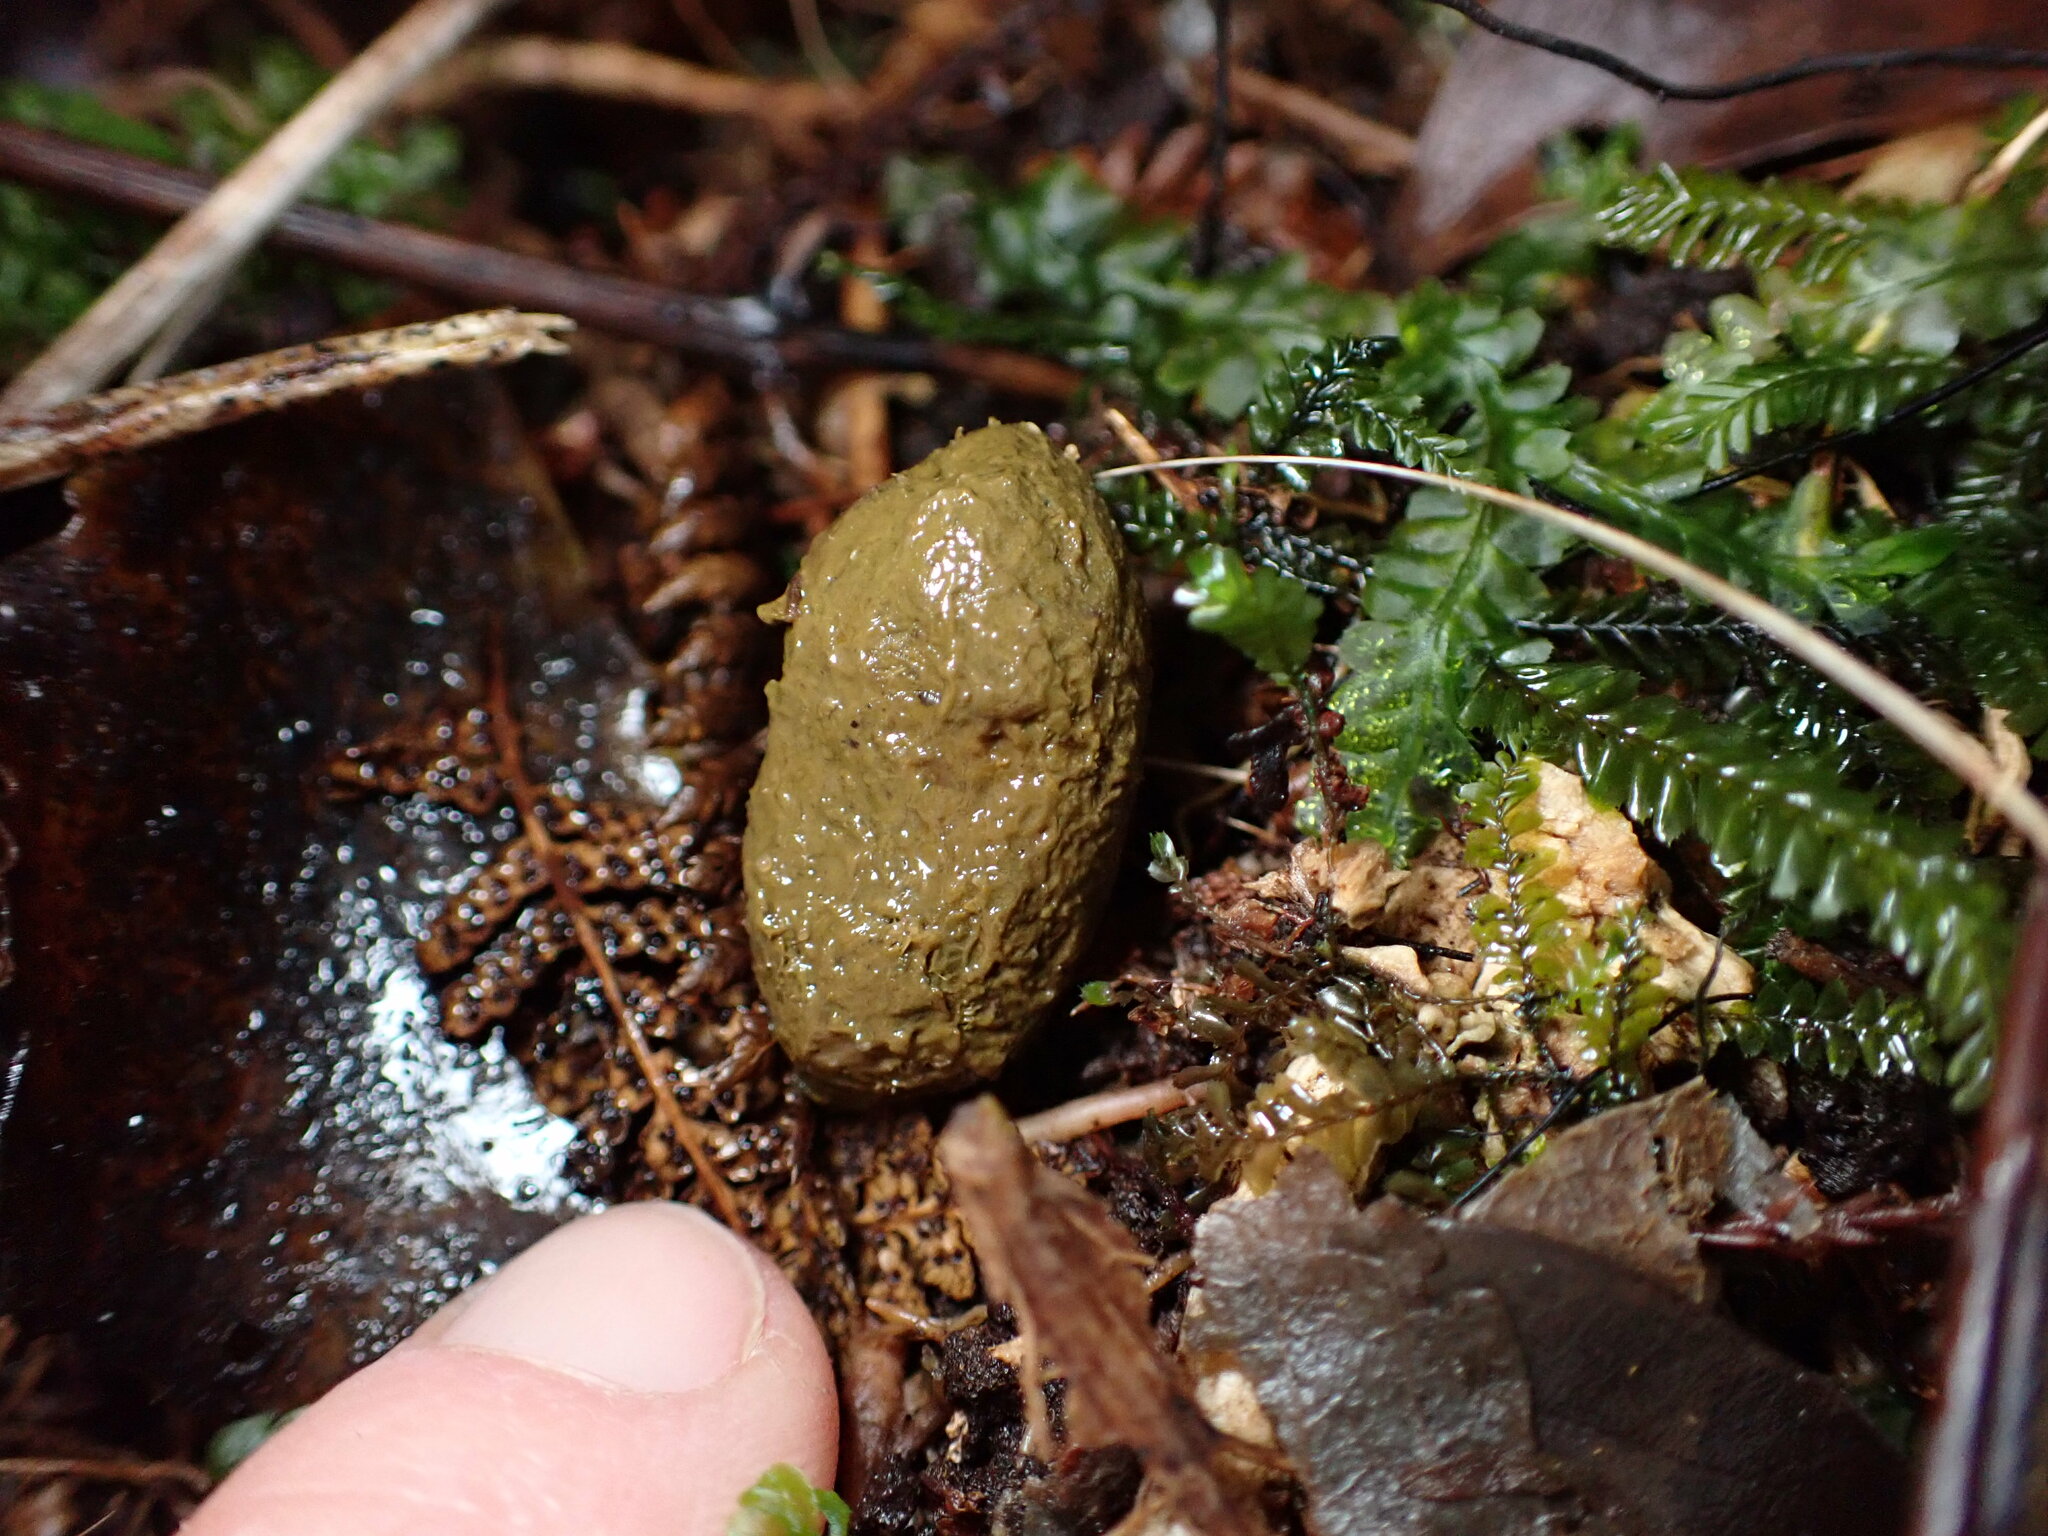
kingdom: Animalia
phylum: Chordata
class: Mammalia
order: Diprotodontia
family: Phalangeridae
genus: Trichosurus
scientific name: Trichosurus vulpecula
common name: Common brushtail
